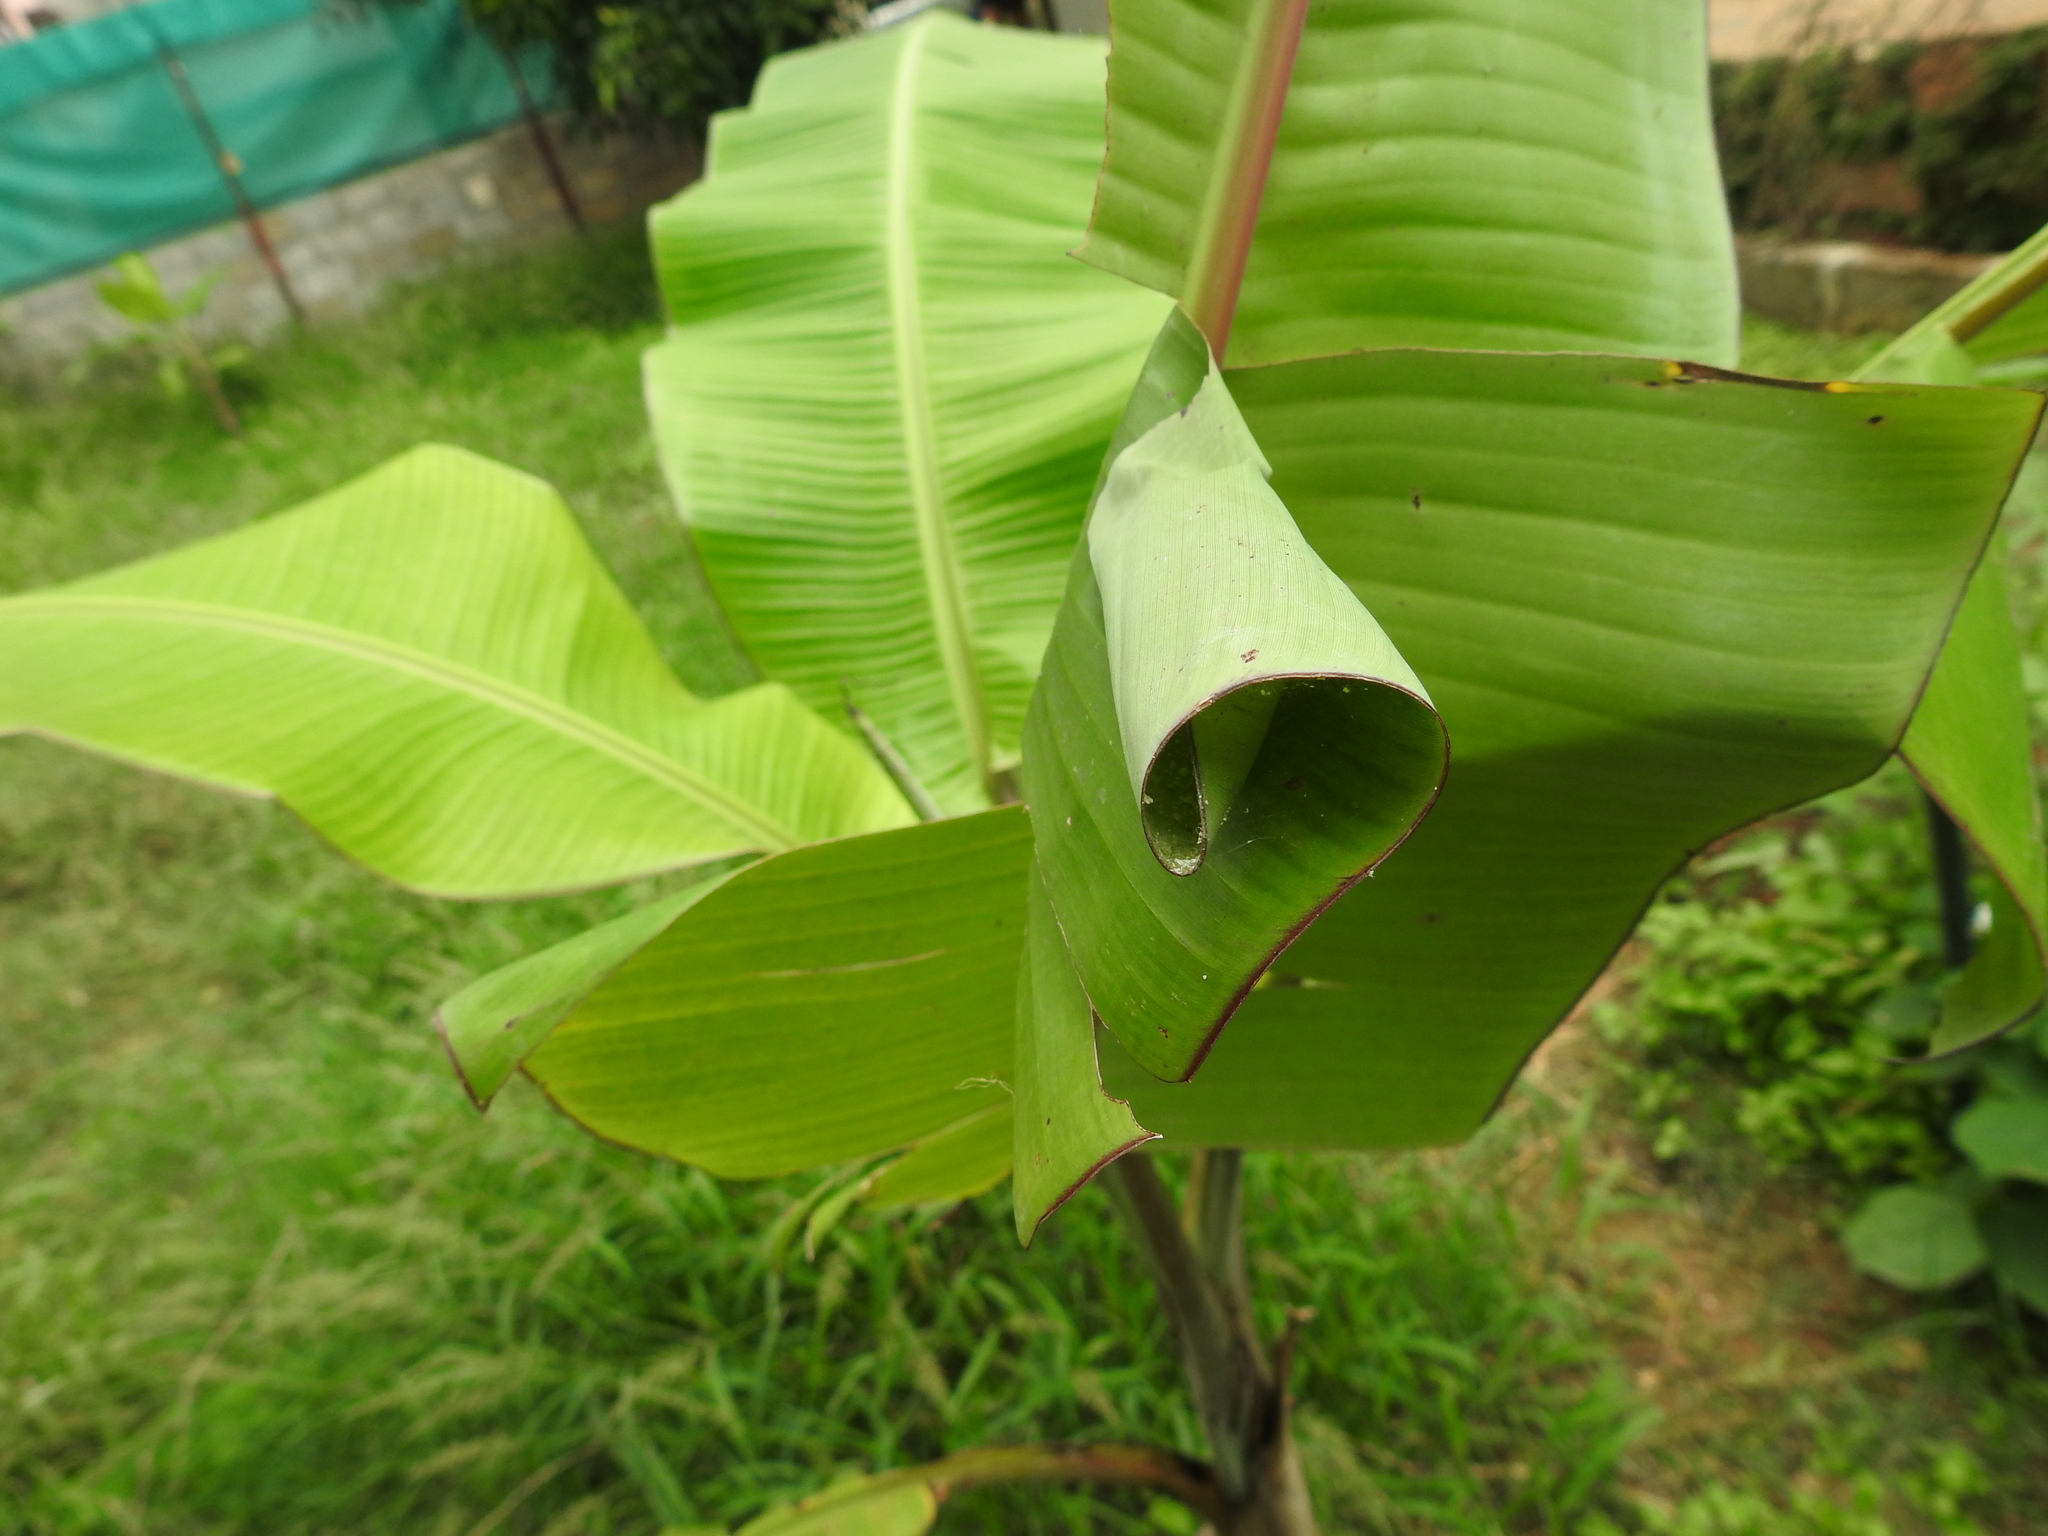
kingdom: Animalia
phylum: Arthropoda
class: Insecta
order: Lepidoptera
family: Hesperiidae
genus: Erionota
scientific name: Erionota torus
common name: Rounded palm-redeye
